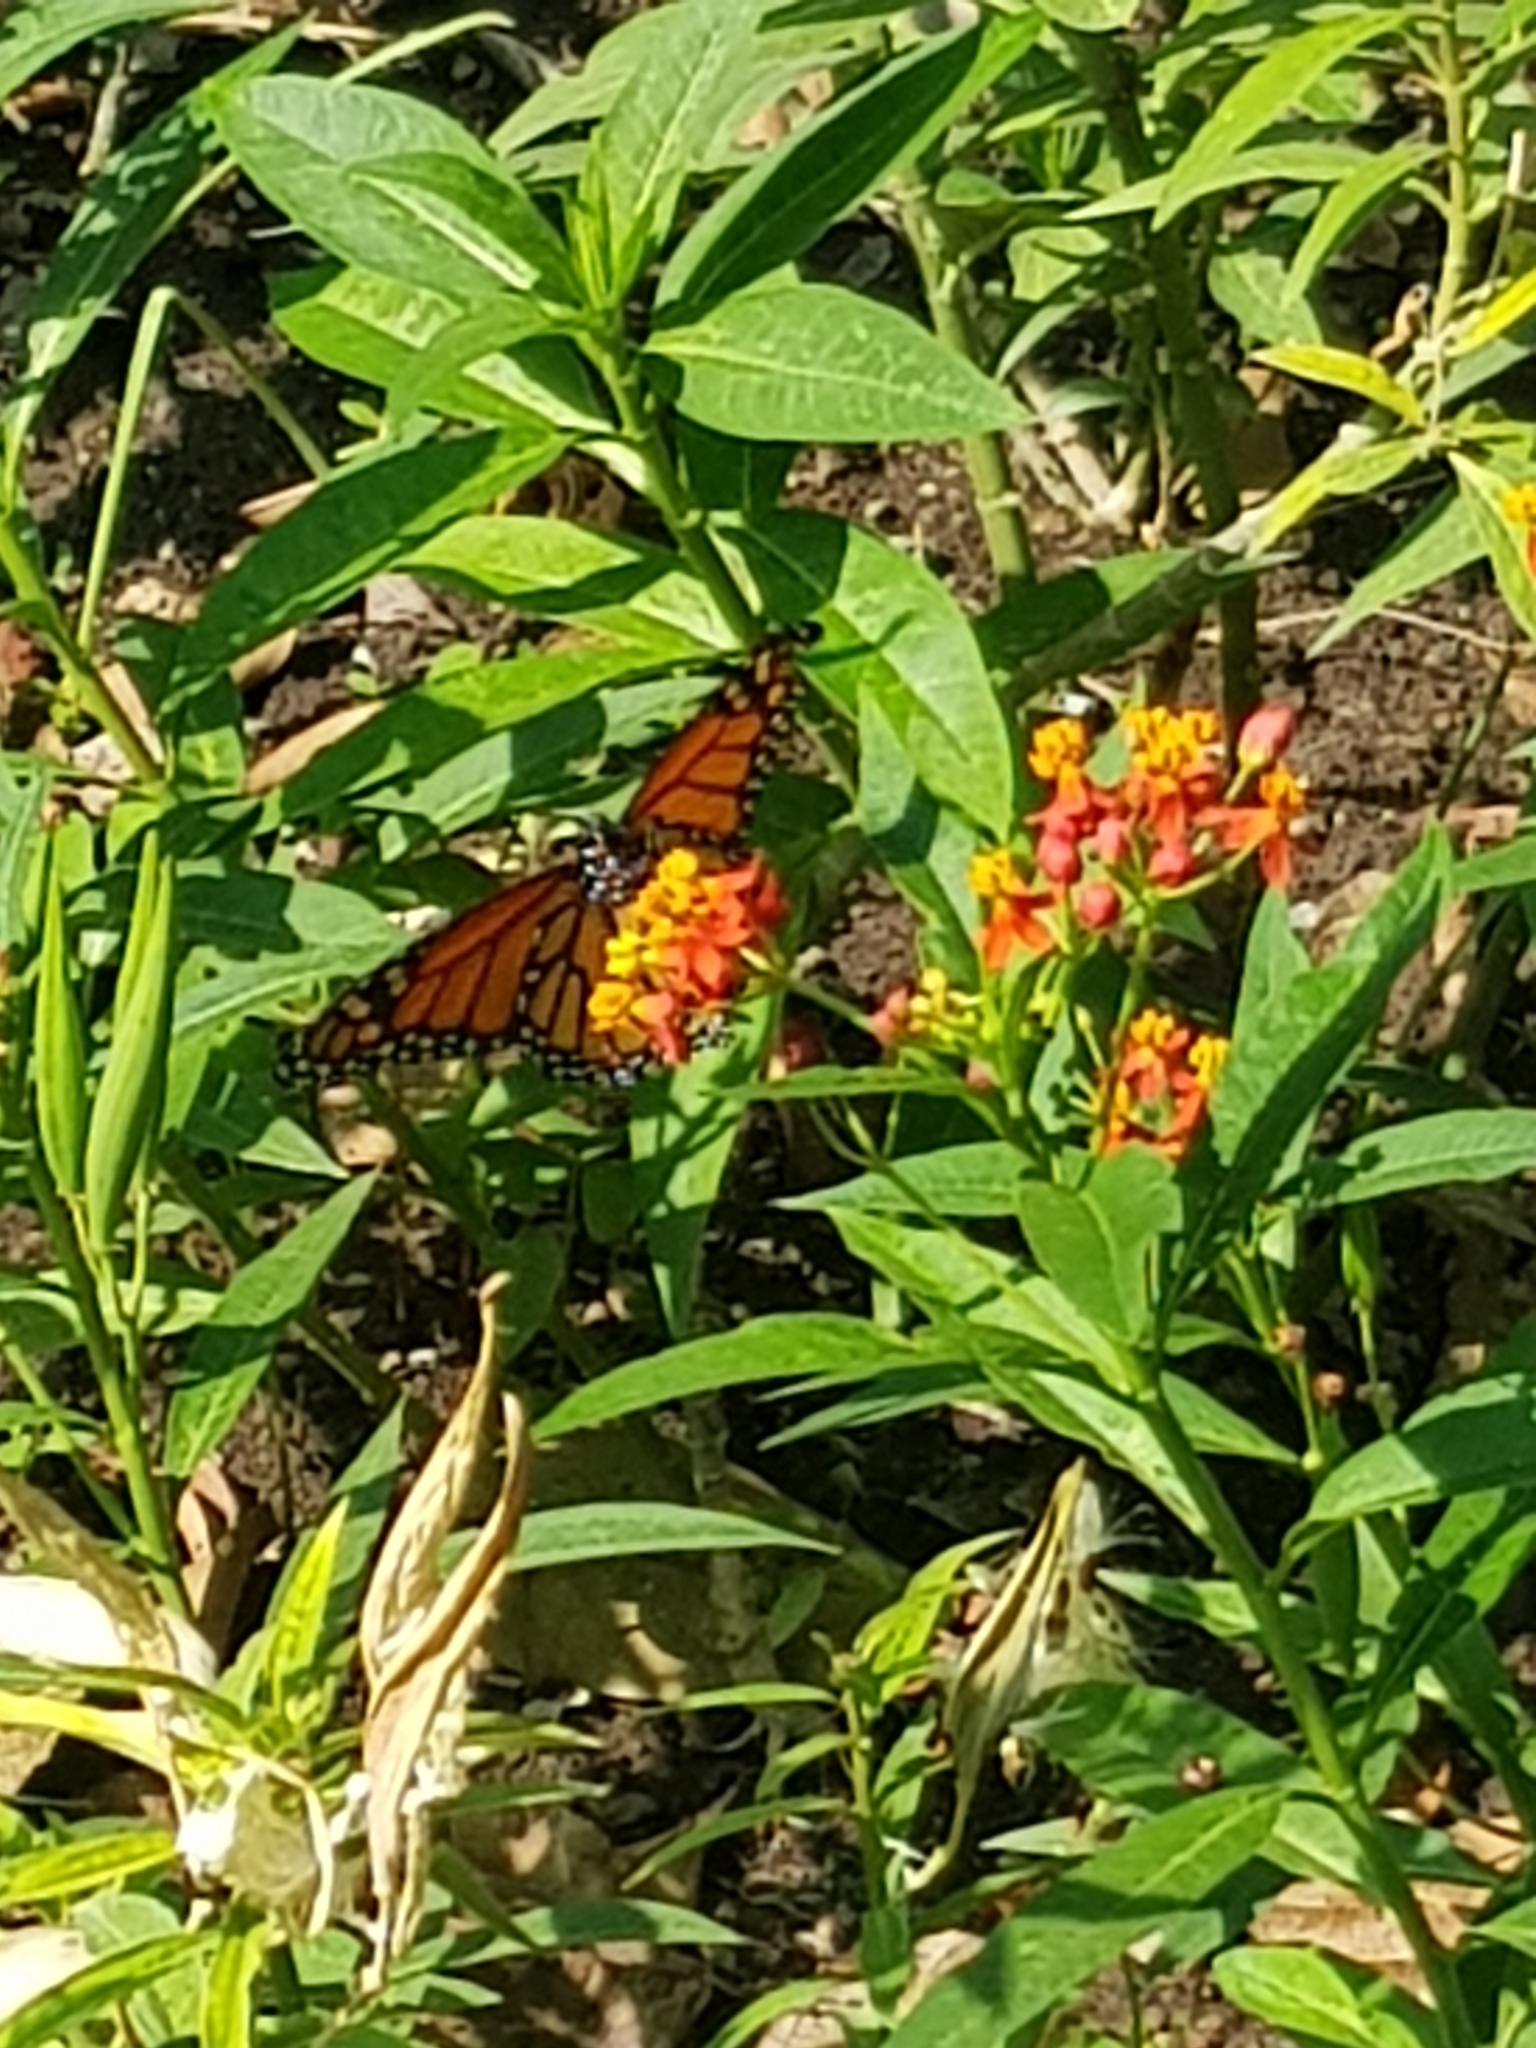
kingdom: Animalia
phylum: Arthropoda
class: Insecta
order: Lepidoptera
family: Nymphalidae
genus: Danaus
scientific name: Danaus plexippus
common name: Monarch
